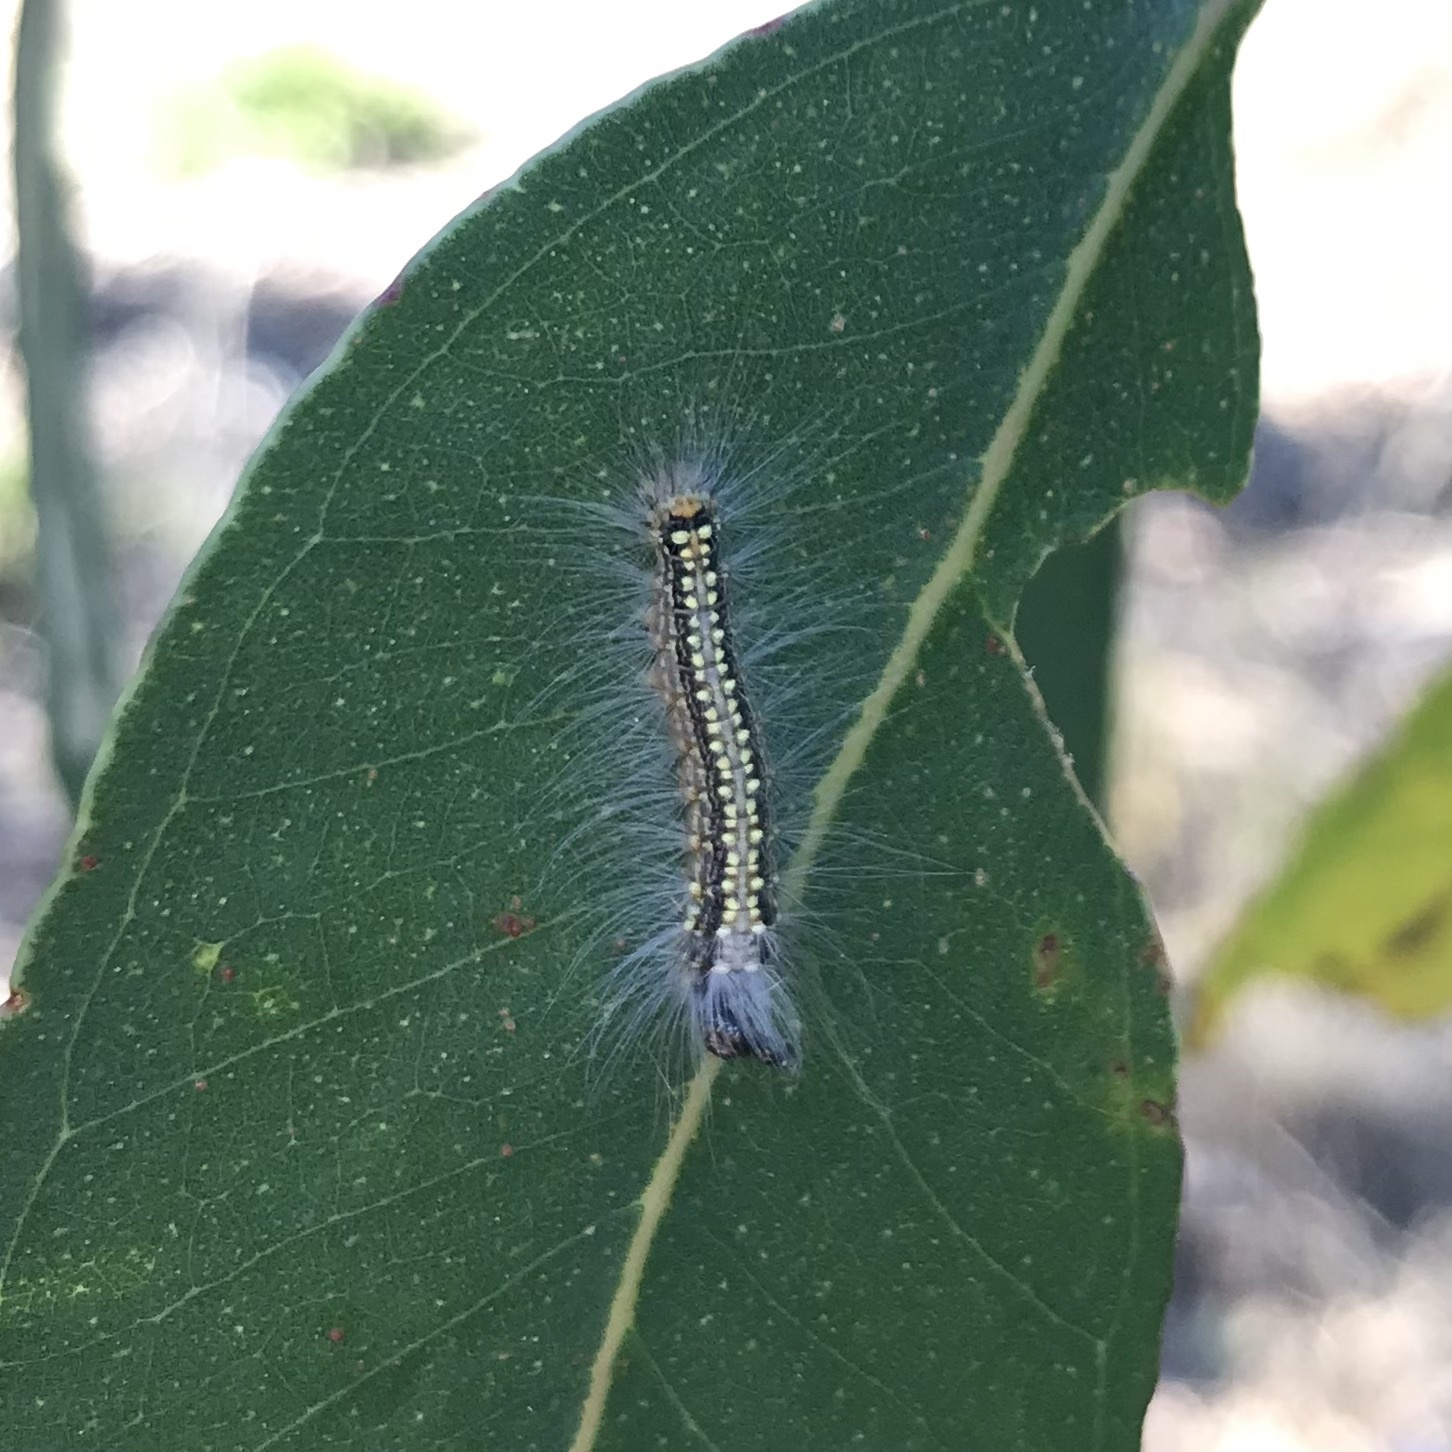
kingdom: Animalia
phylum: Arthropoda
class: Insecta
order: Lepidoptera
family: Nolidae
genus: Uraba
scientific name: Uraba lugens
